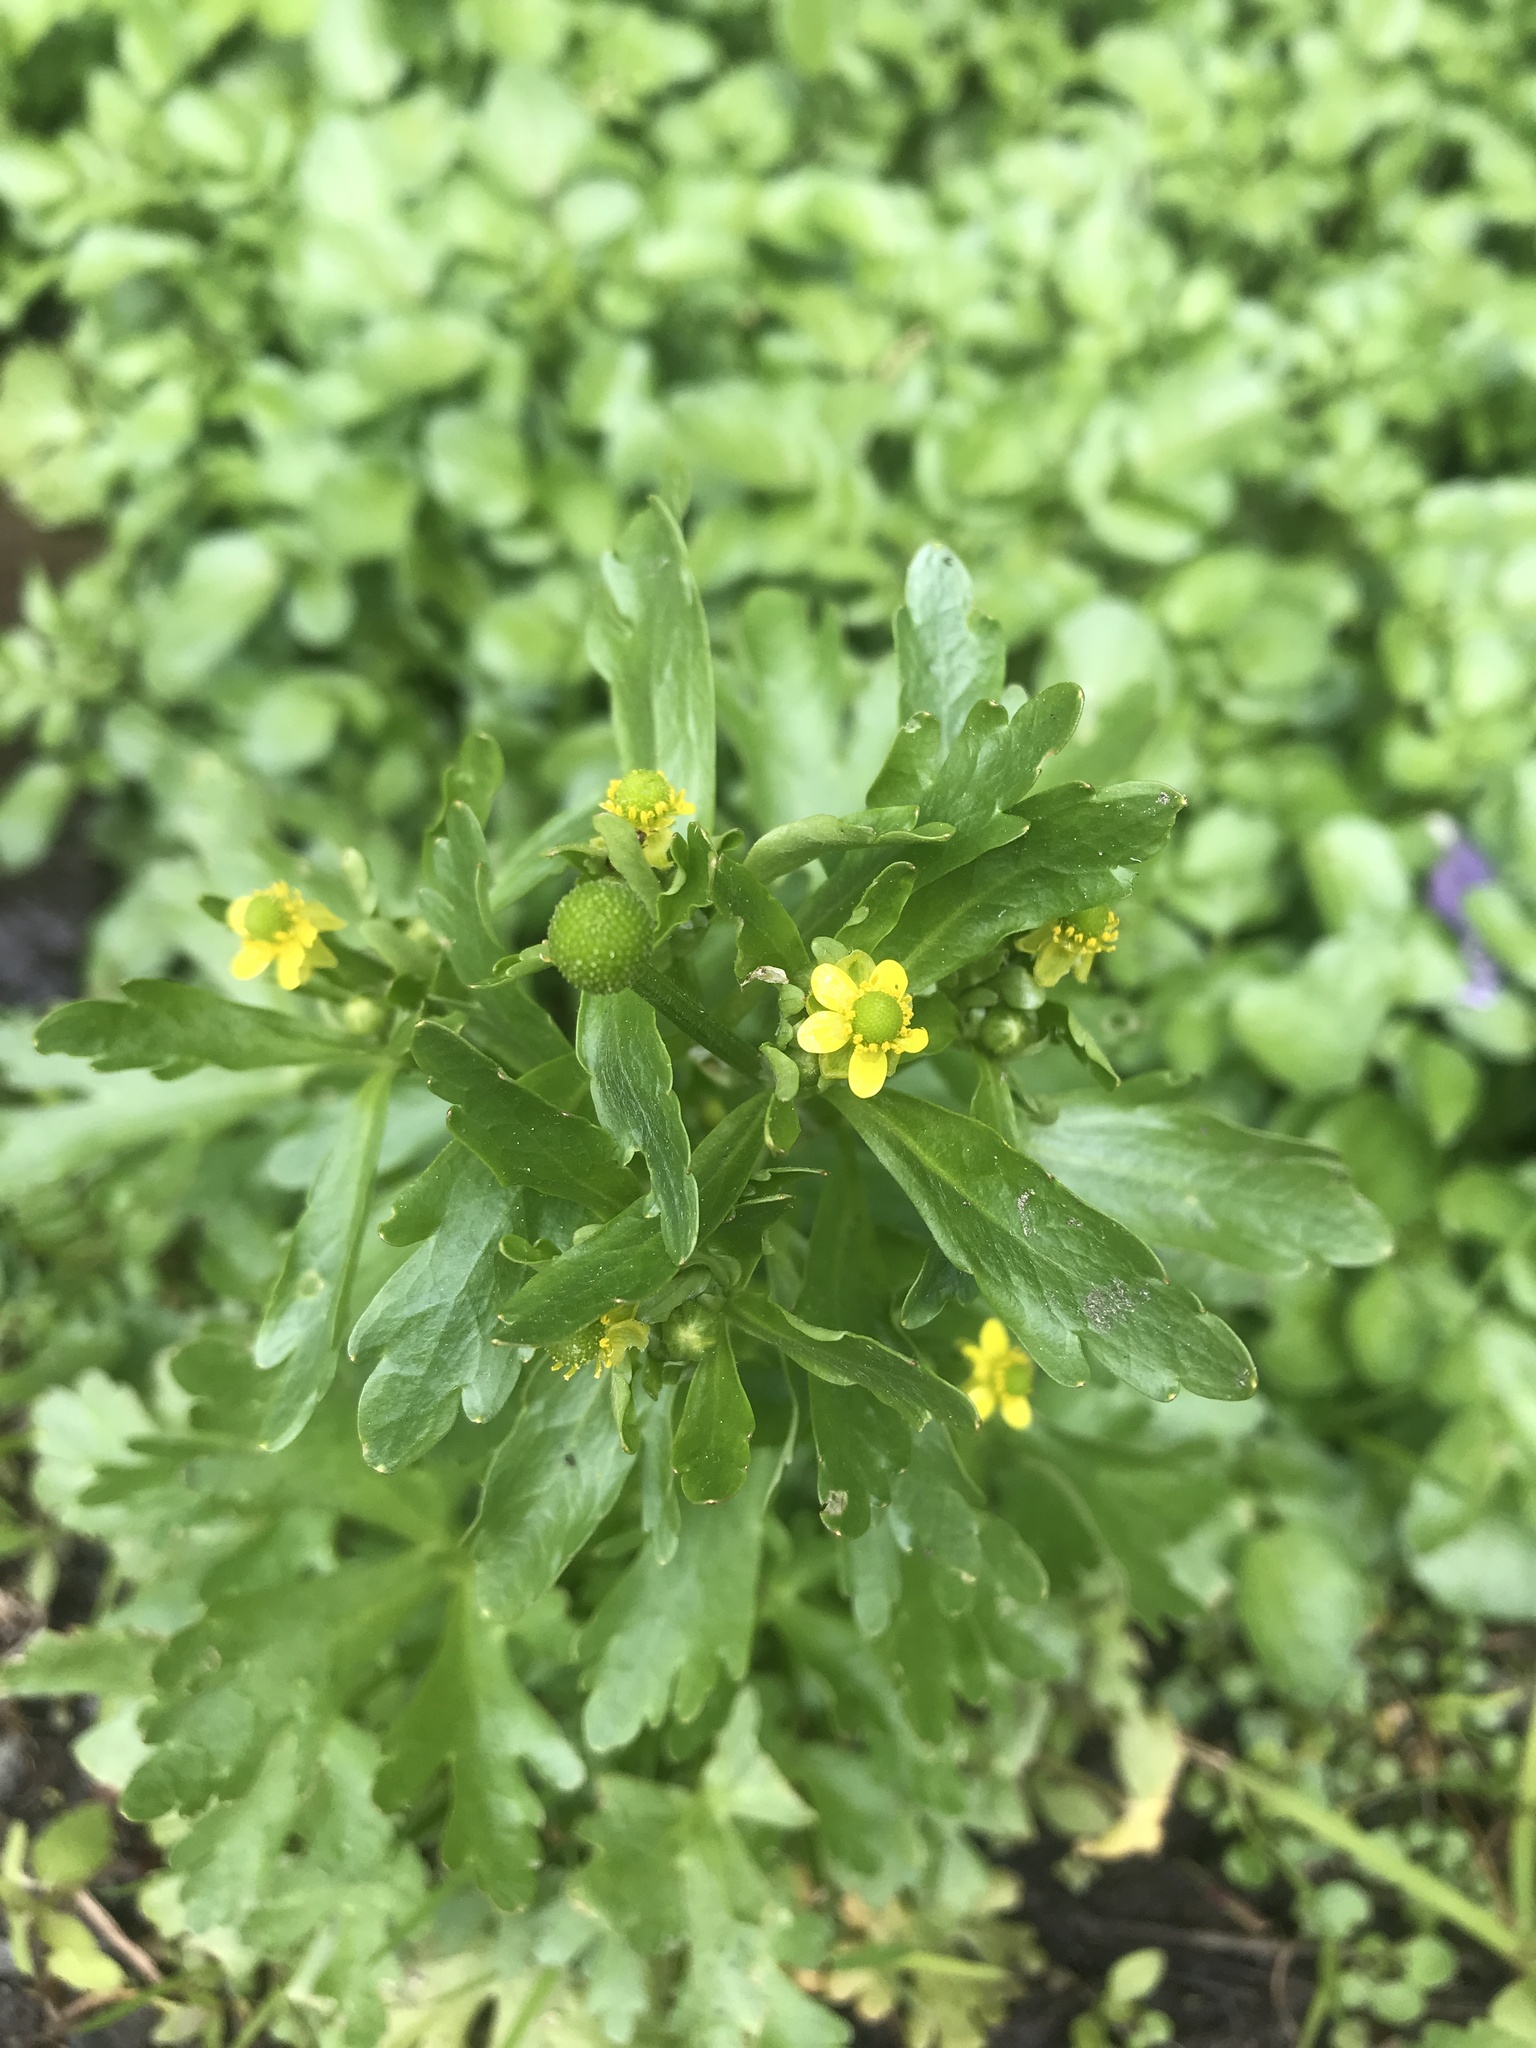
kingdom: Plantae
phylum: Tracheophyta
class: Magnoliopsida
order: Ranunculales
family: Ranunculaceae
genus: Ranunculus
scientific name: Ranunculus sceleratus
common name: Celery-leaved buttercup
